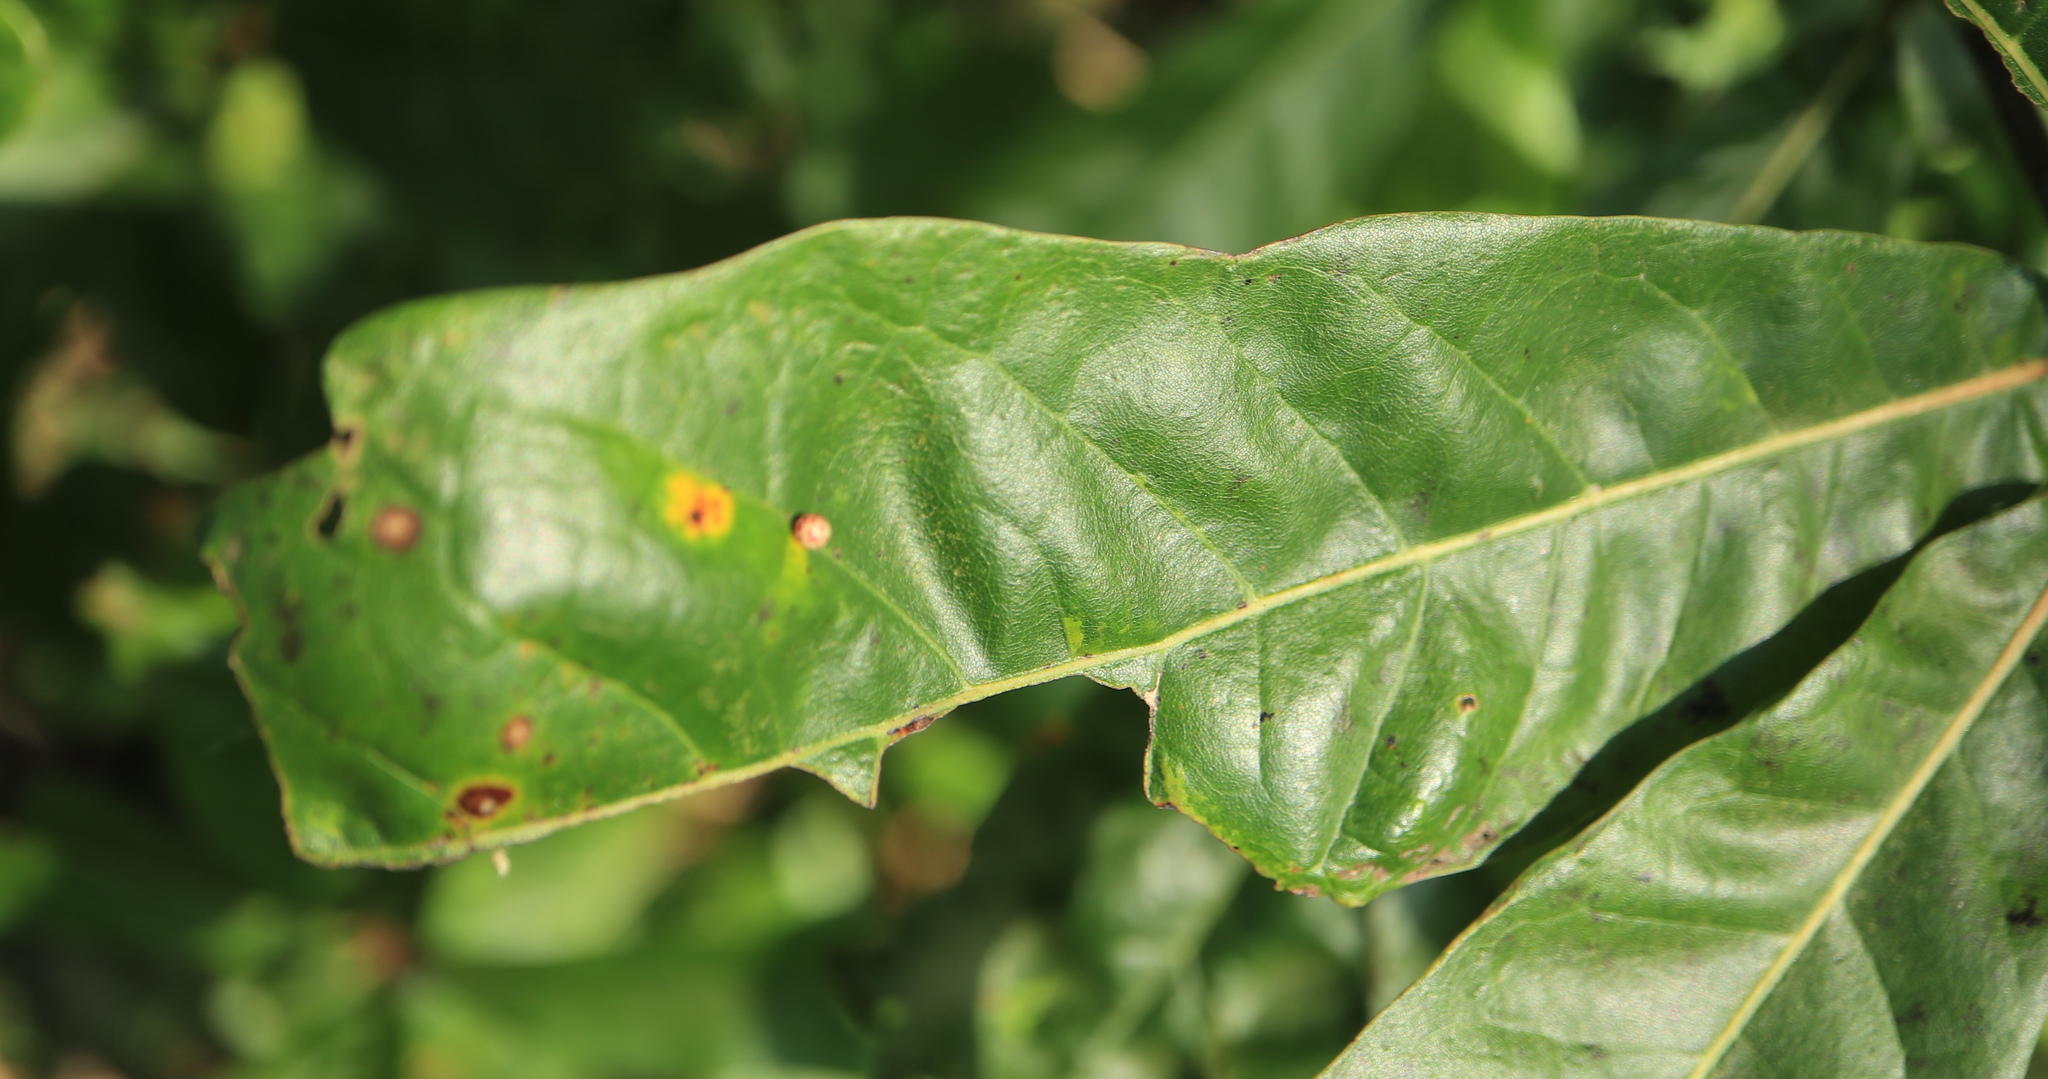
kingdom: Animalia
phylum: Arthropoda
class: Insecta
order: Hymenoptera
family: Cynipidae
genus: Zopheroteras
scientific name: Zopheroteras
